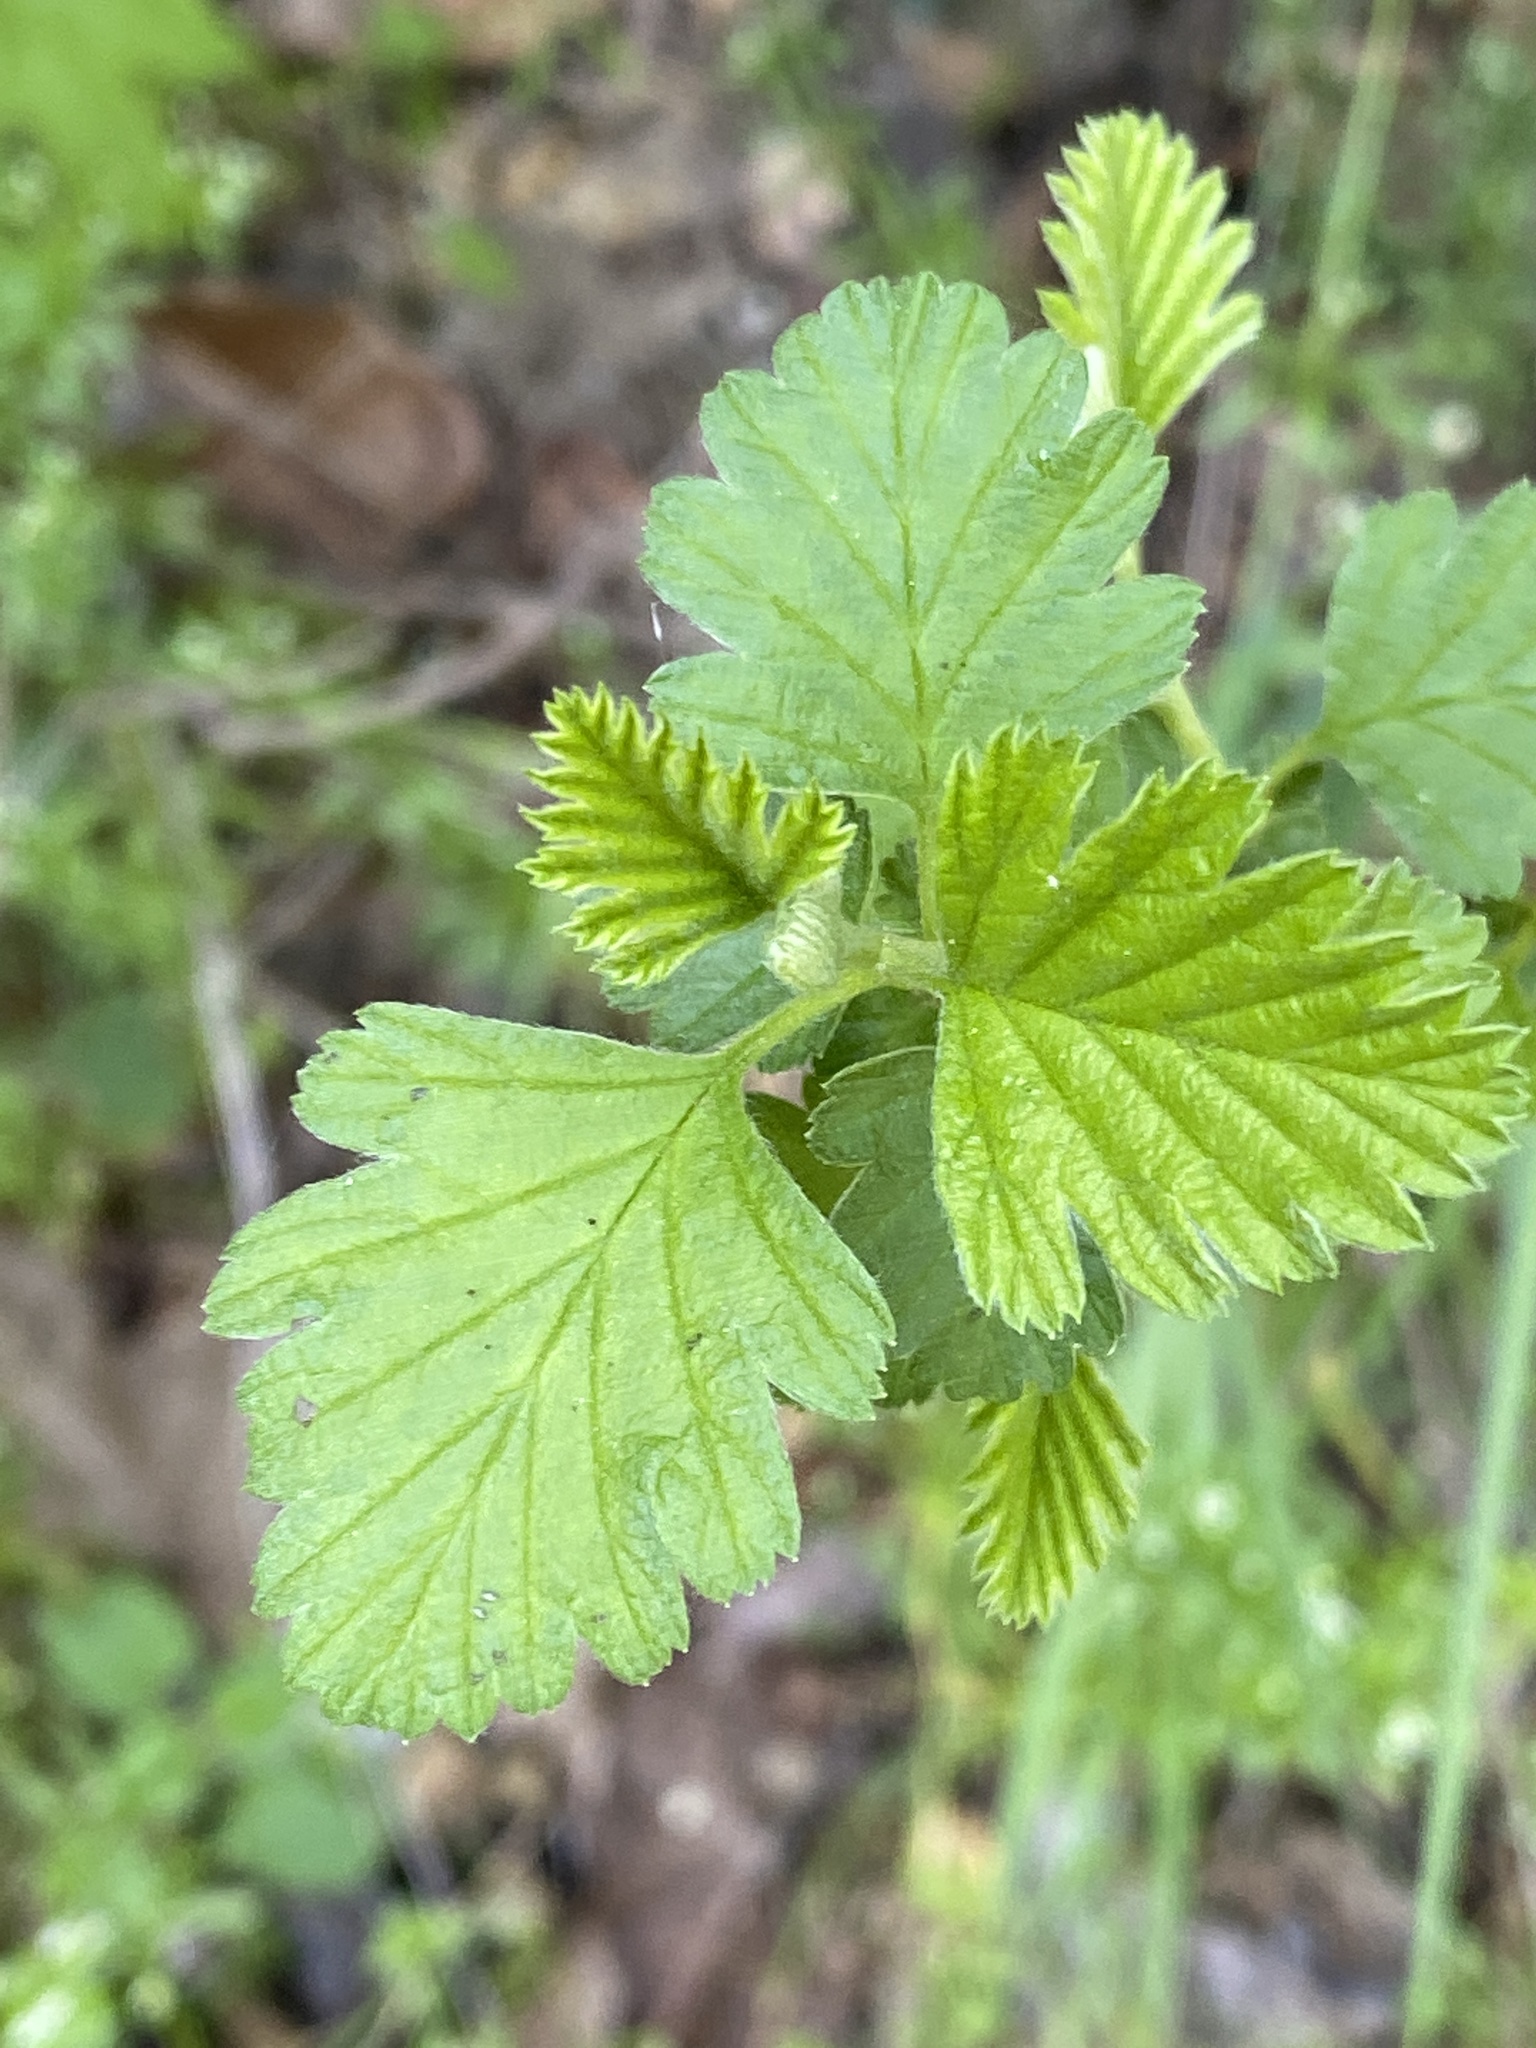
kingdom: Plantae
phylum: Tracheophyta
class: Magnoliopsida
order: Rosales
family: Rosaceae
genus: Holodiscus
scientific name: Holodiscus discolor
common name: Oceanspray
